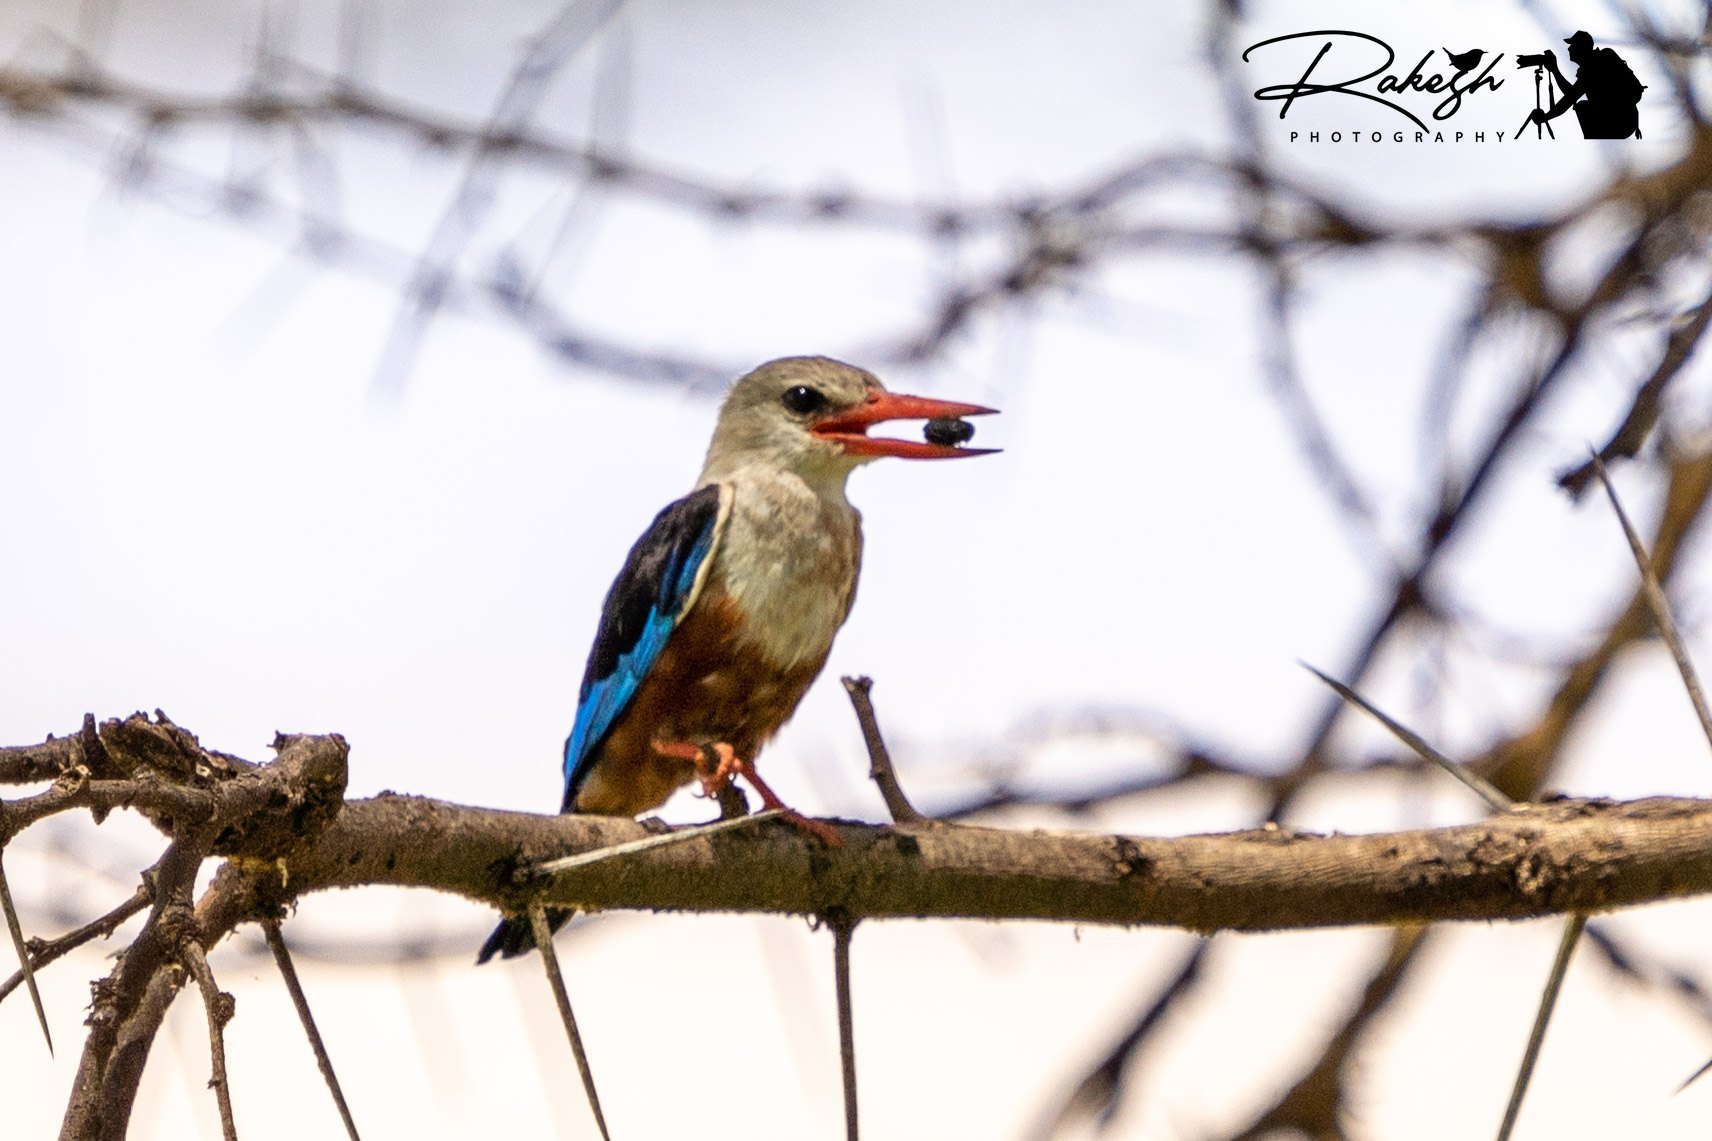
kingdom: Animalia
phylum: Chordata
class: Aves
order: Coraciiformes
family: Alcedinidae
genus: Halcyon
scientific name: Halcyon leucocephala
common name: Grey-headed kingfisher
